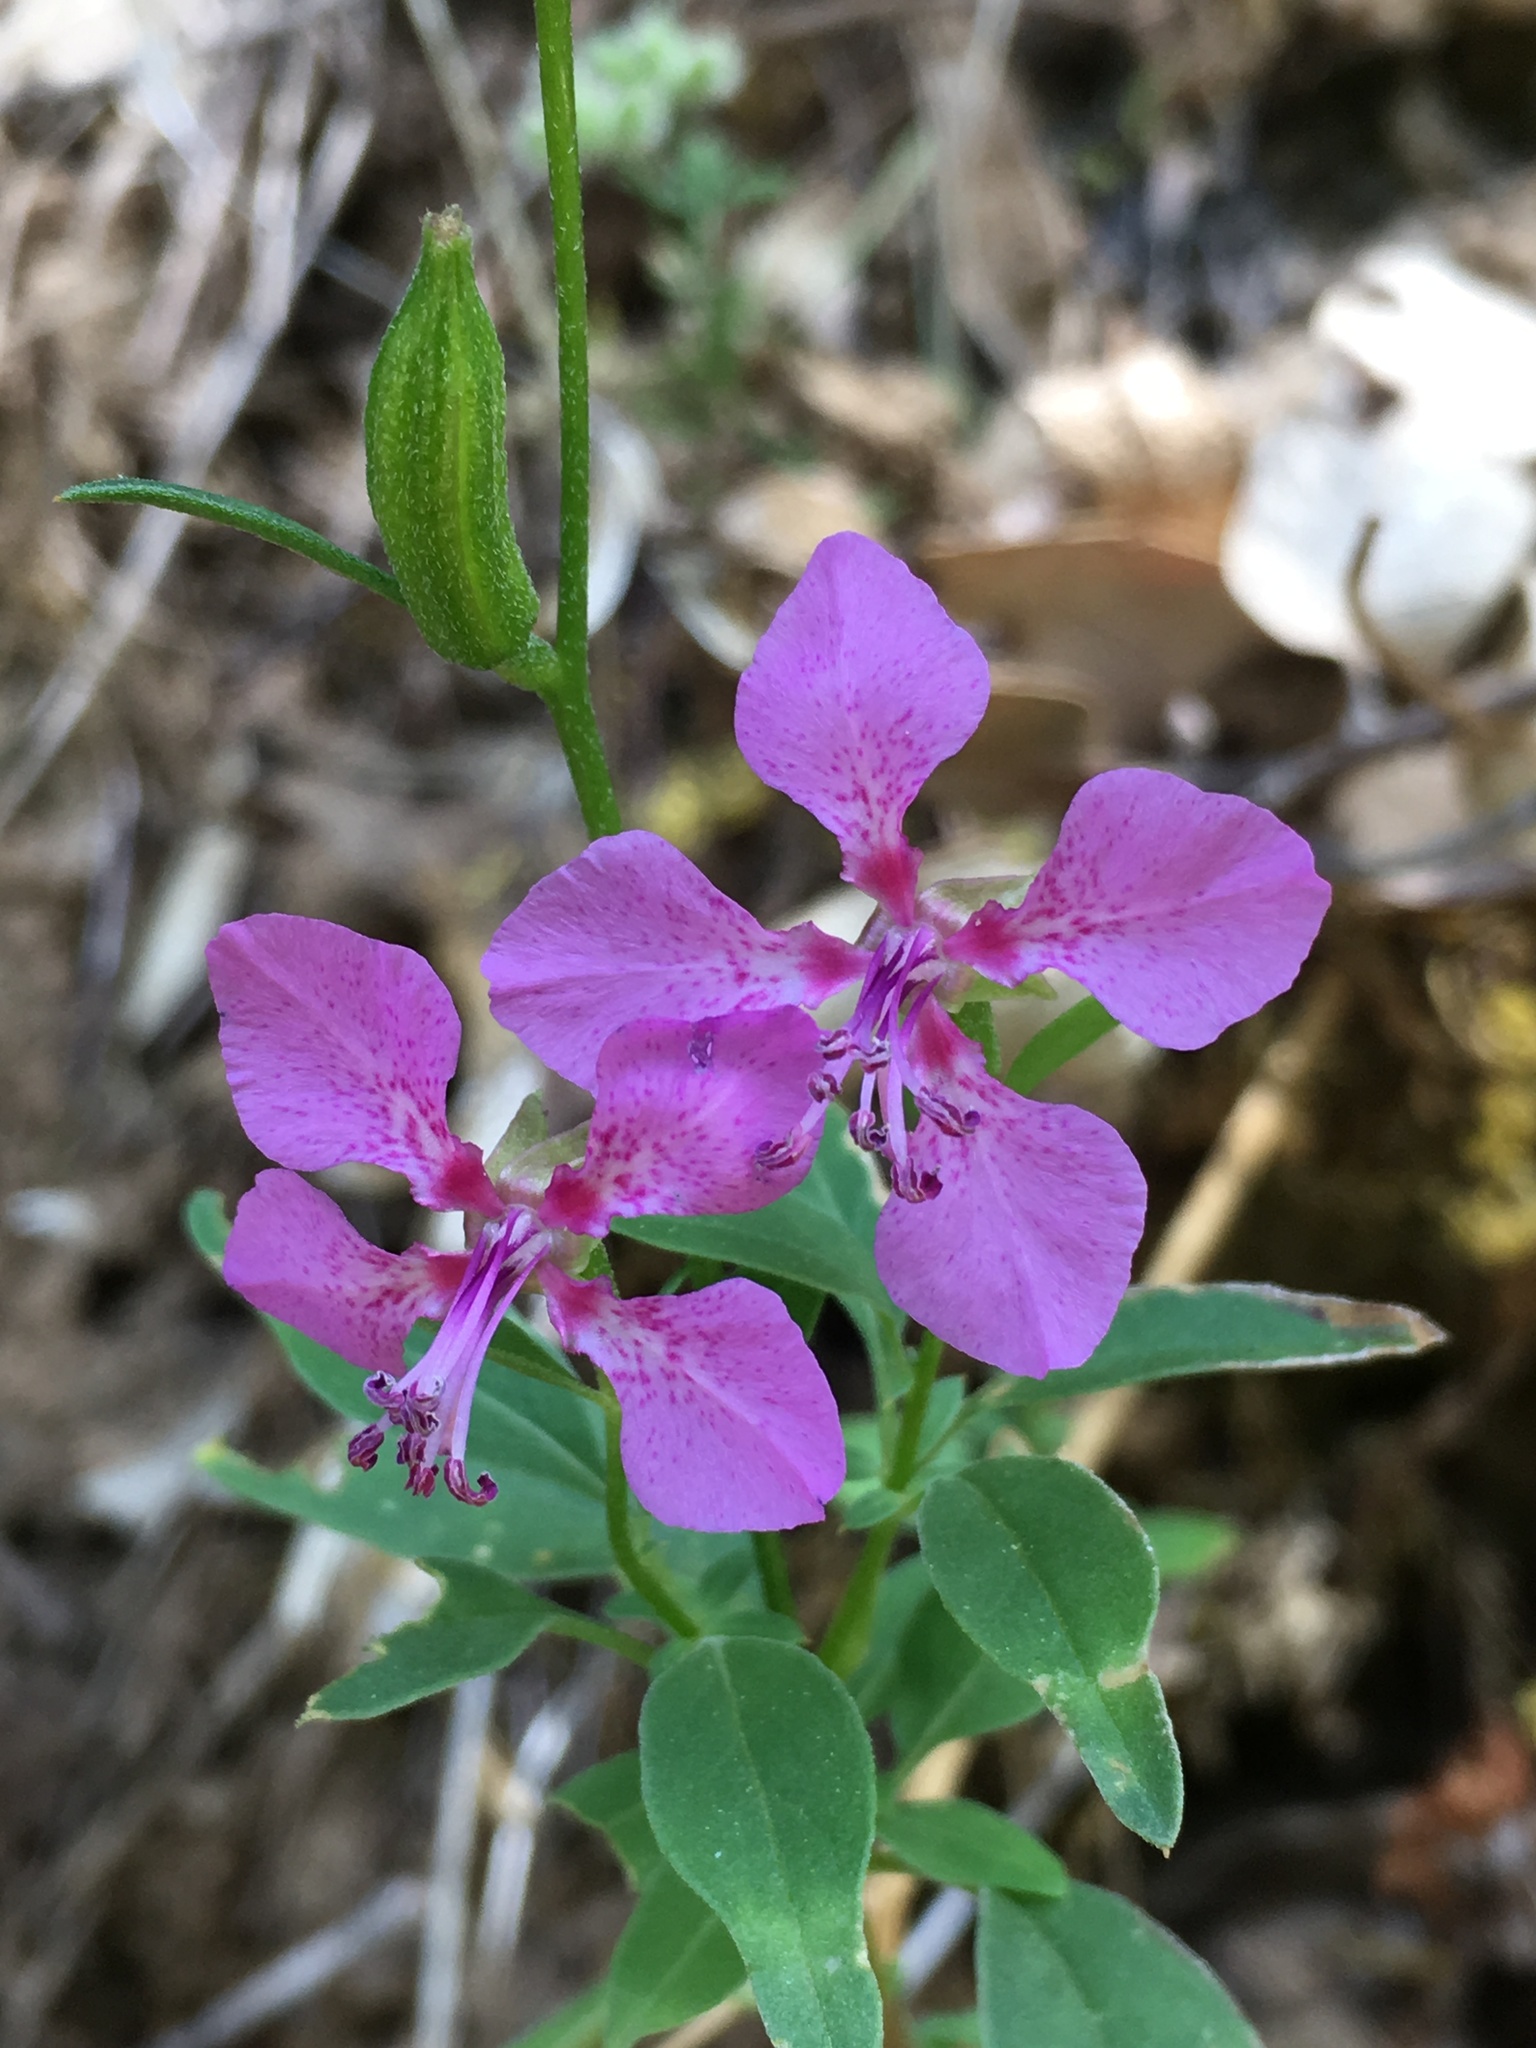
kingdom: Plantae
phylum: Tracheophyta
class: Magnoliopsida
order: Myrtales
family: Onagraceae
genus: Clarkia
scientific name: Clarkia rhomboidea
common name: Broadleaf clarkia
